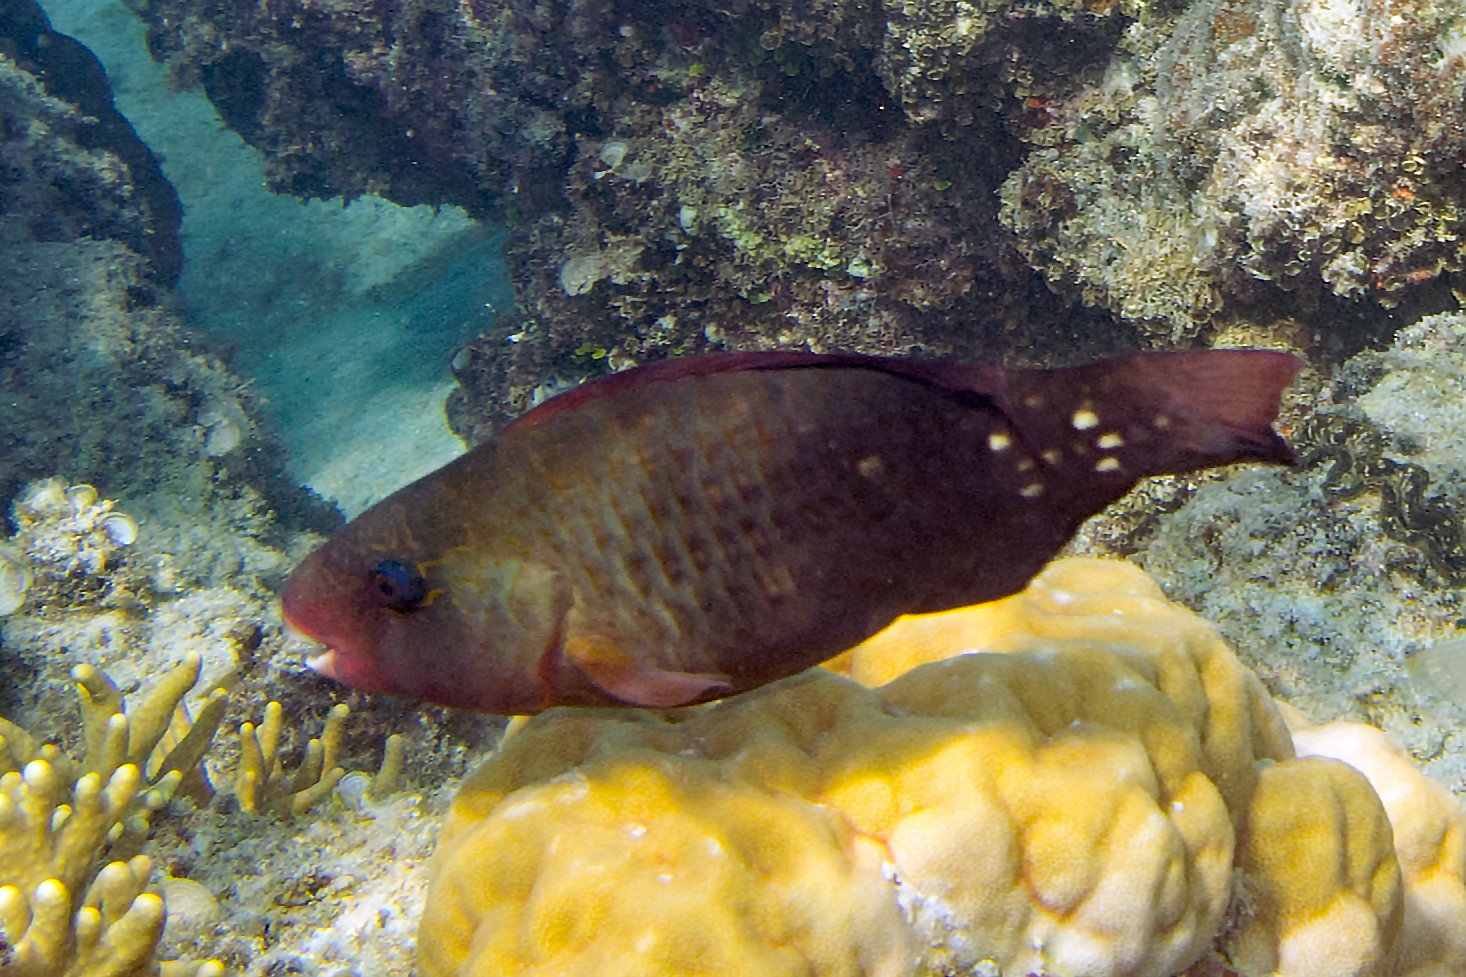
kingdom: Animalia
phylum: Chordata
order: Perciformes
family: Scaridae
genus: Chlorurus
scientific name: Chlorurus spilurus
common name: Bullethead parrotfish
